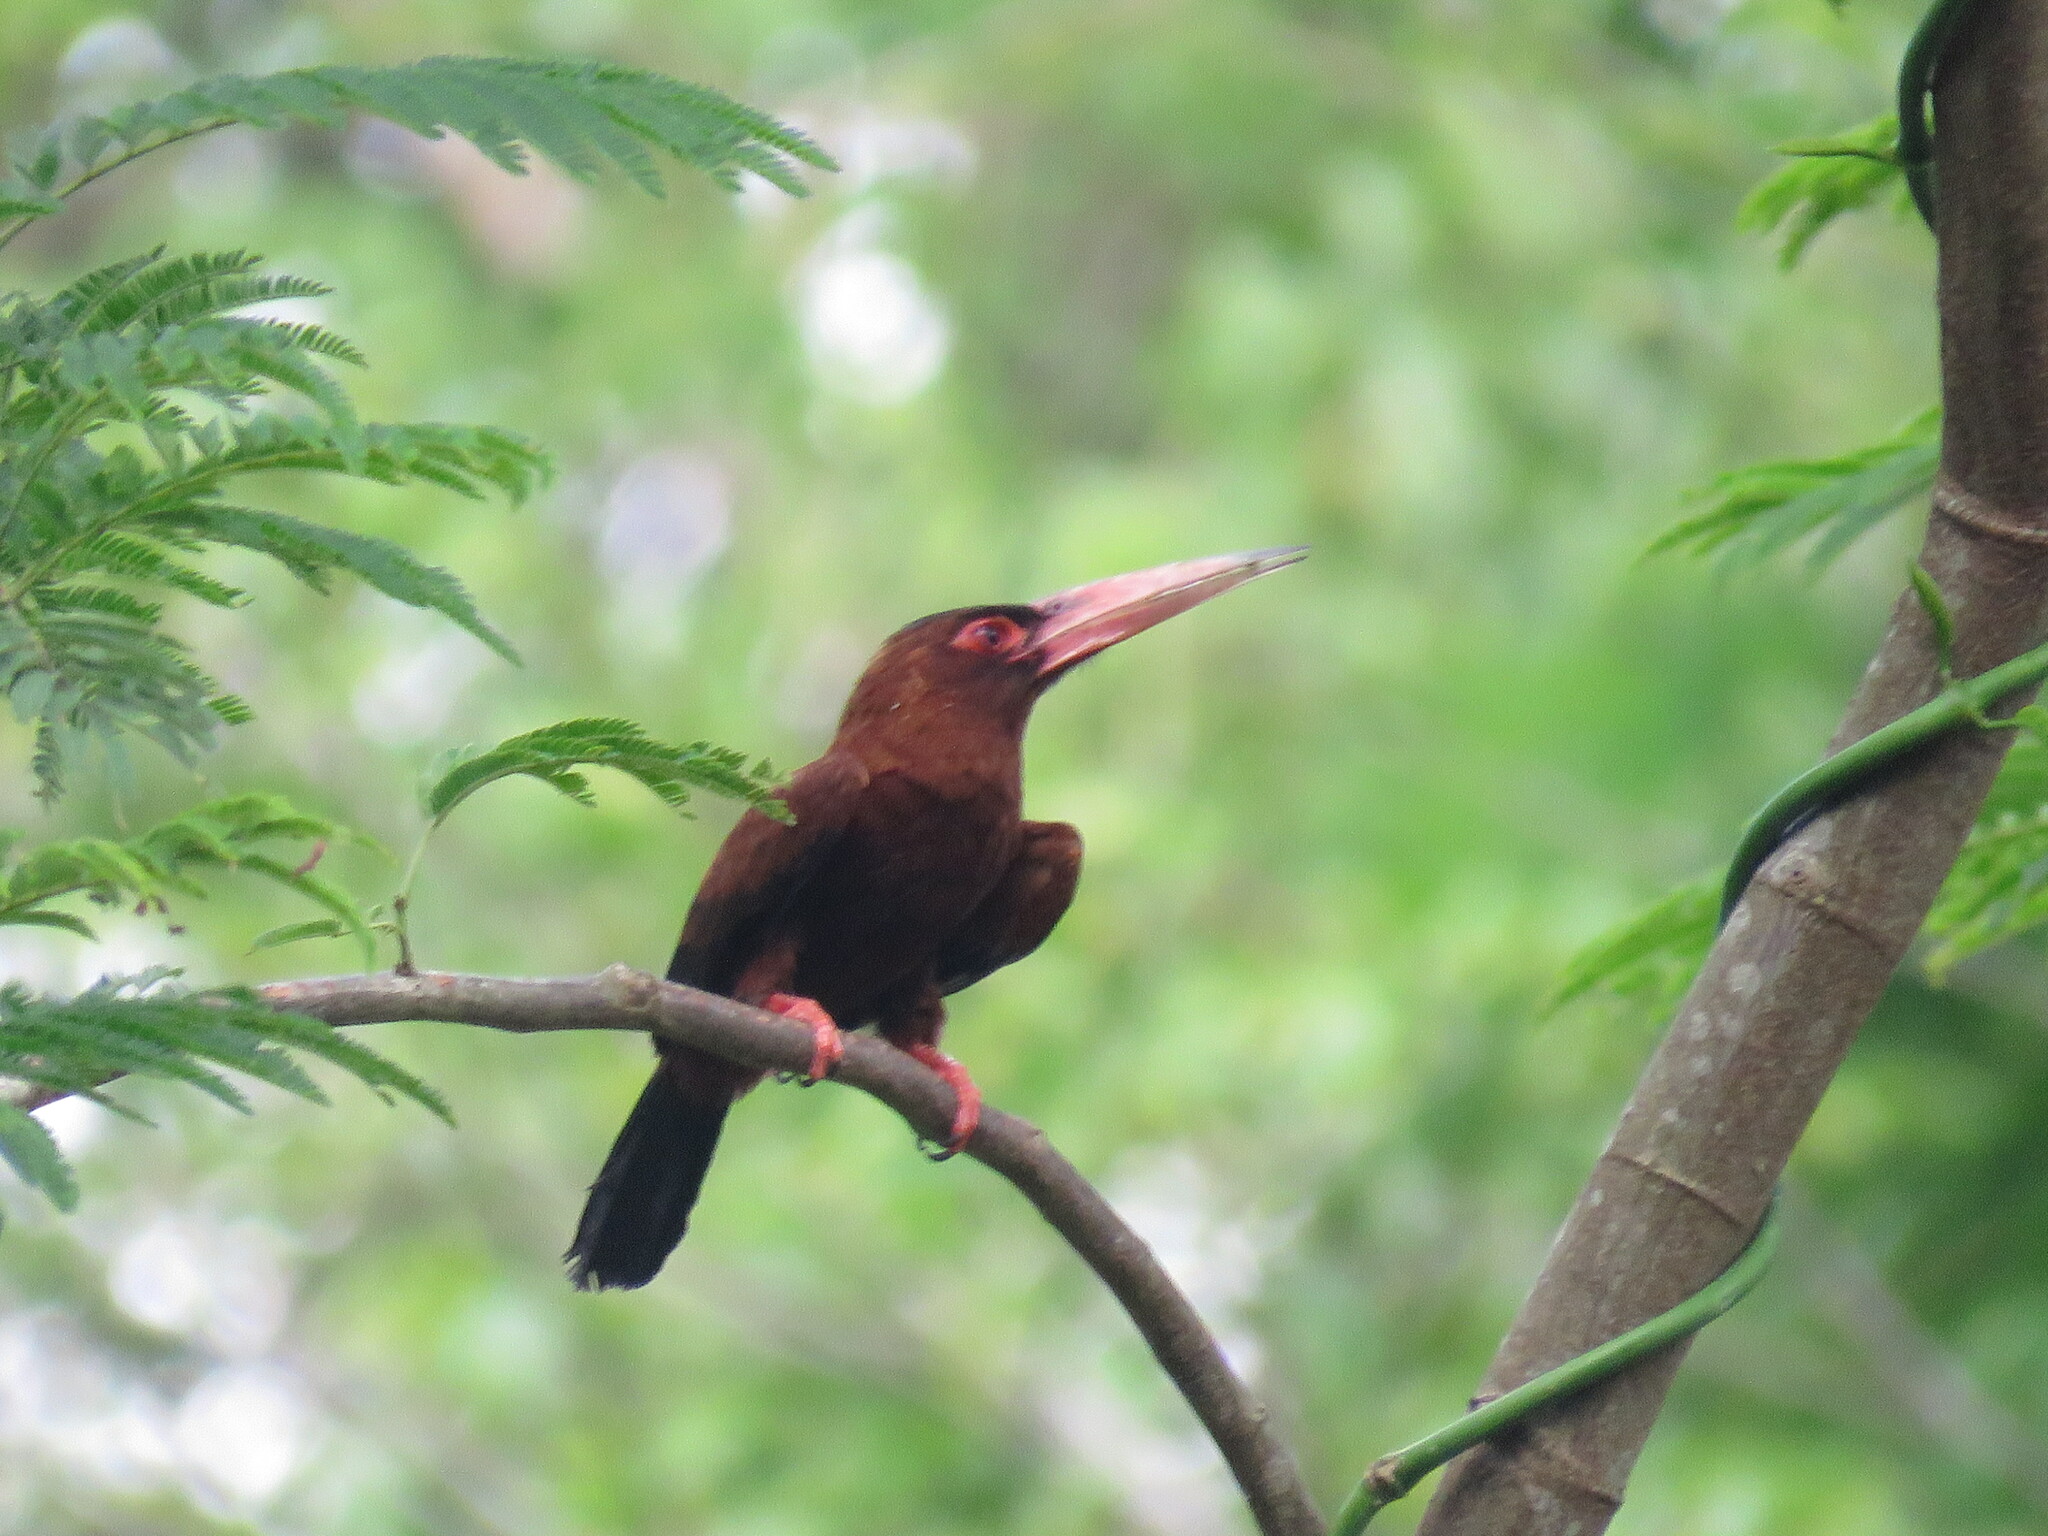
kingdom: Animalia
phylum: Chordata
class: Aves
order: Piciformes
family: Galbulidae
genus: Galbalcyrhynchus
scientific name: Galbalcyrhynchus purusianus
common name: Purus jacamar
